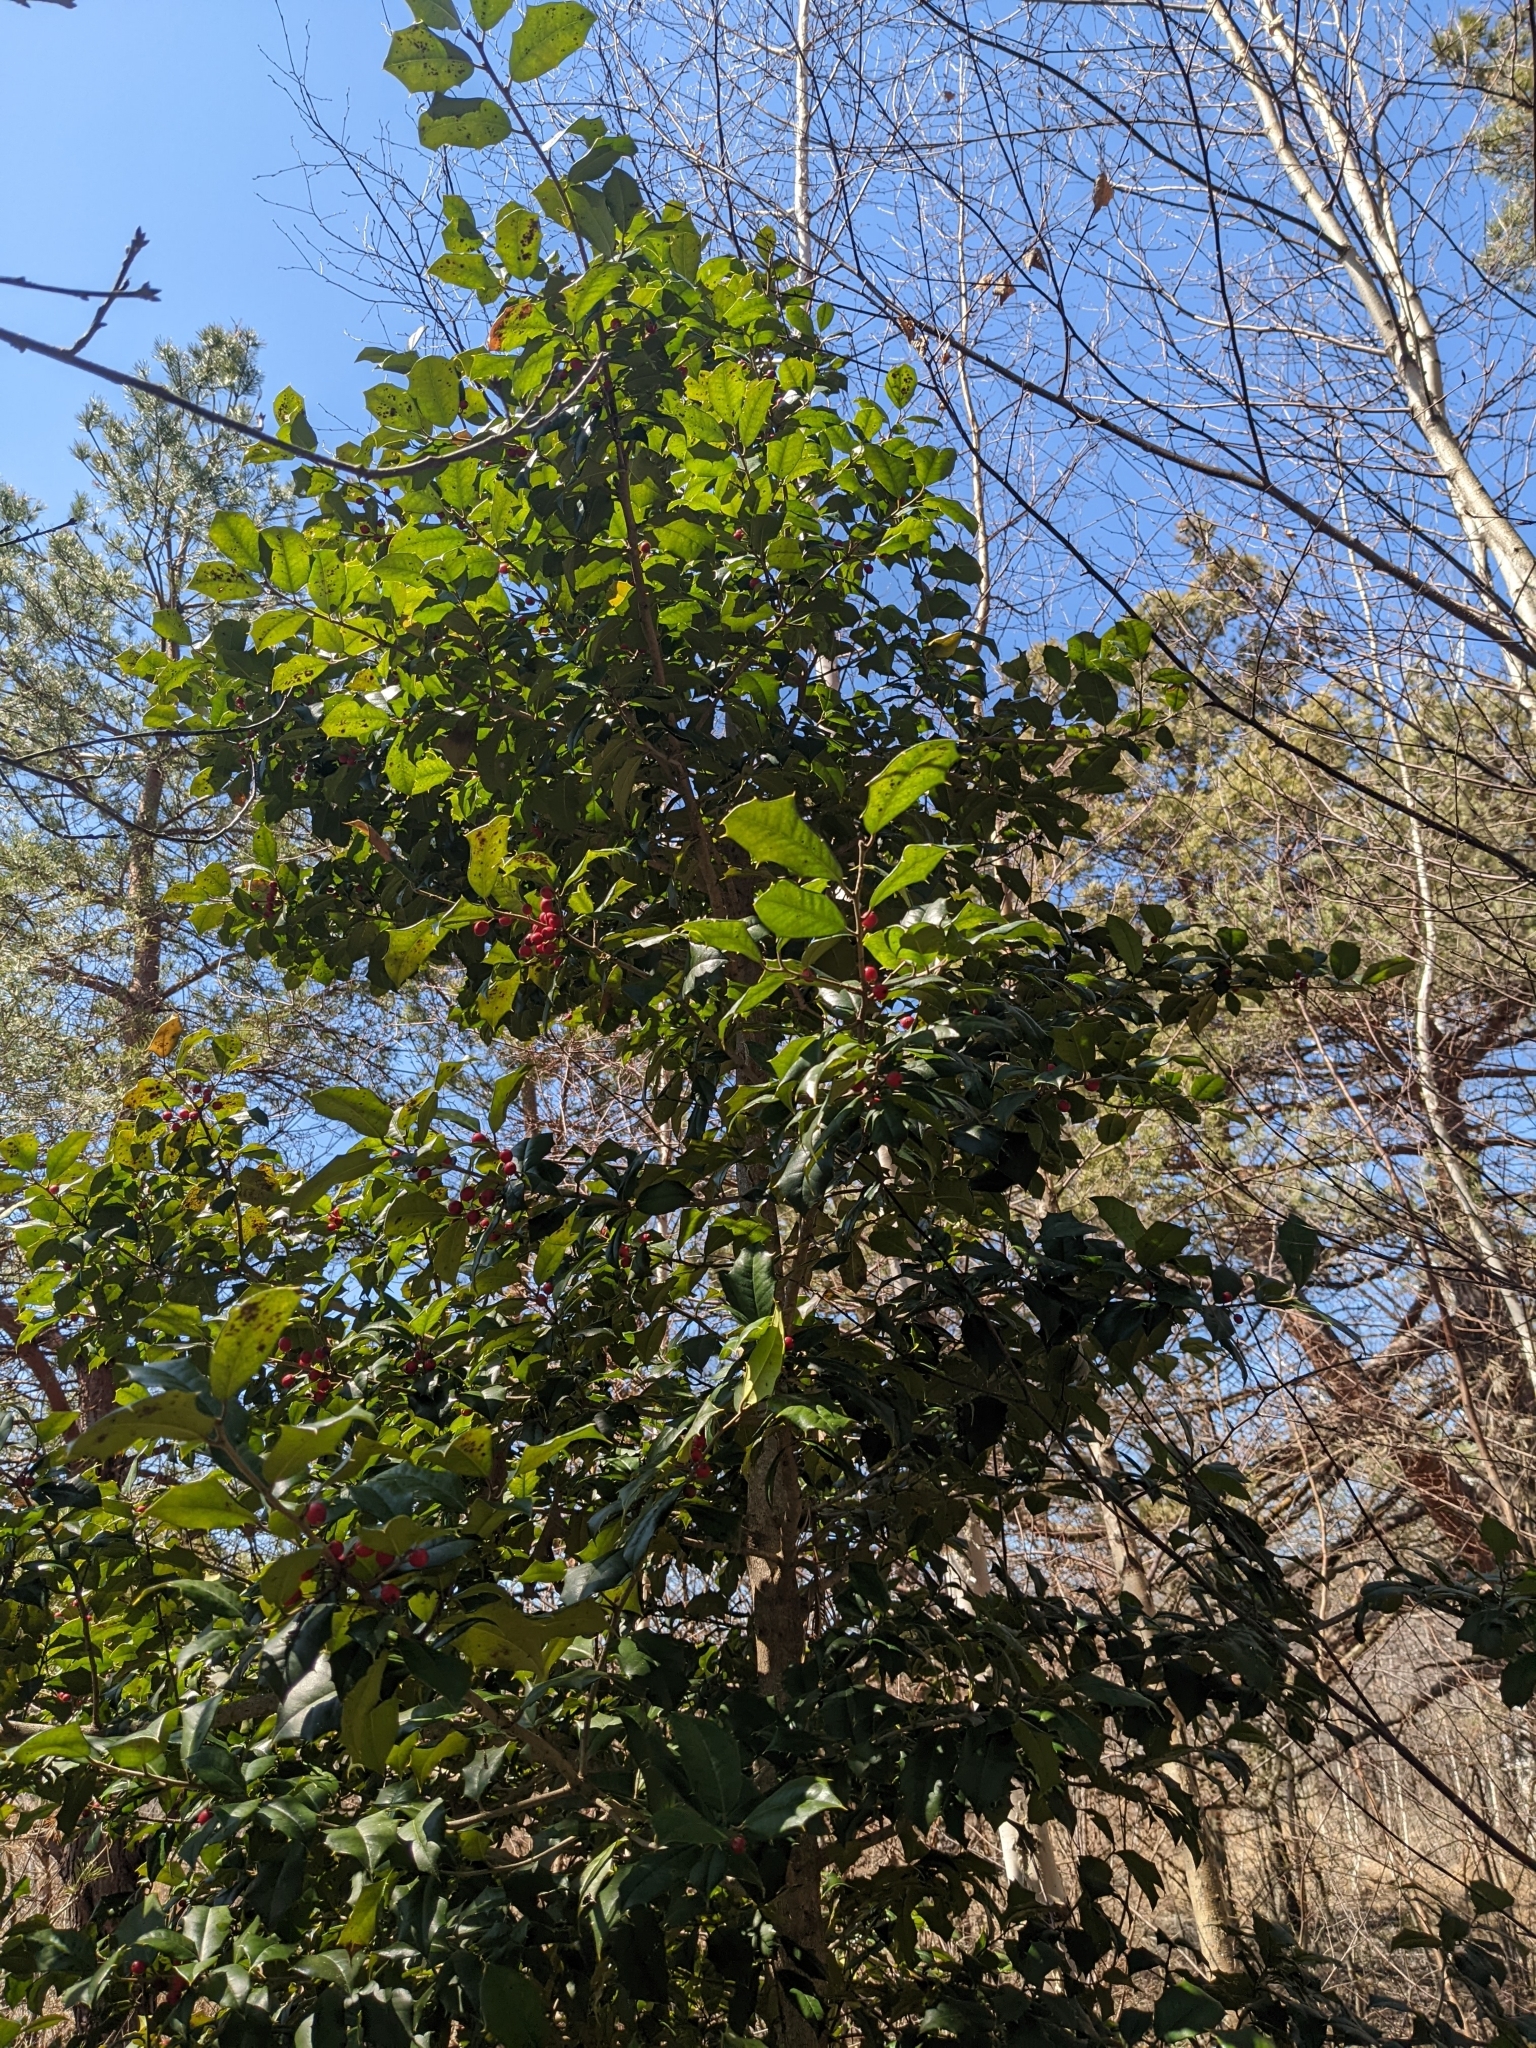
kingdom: Plantae
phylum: Tracheophyta
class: Magnoliopsida
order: Aquifoliales
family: Aquifoliaceae
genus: Ilex
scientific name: Ilex opaca
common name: American holly
